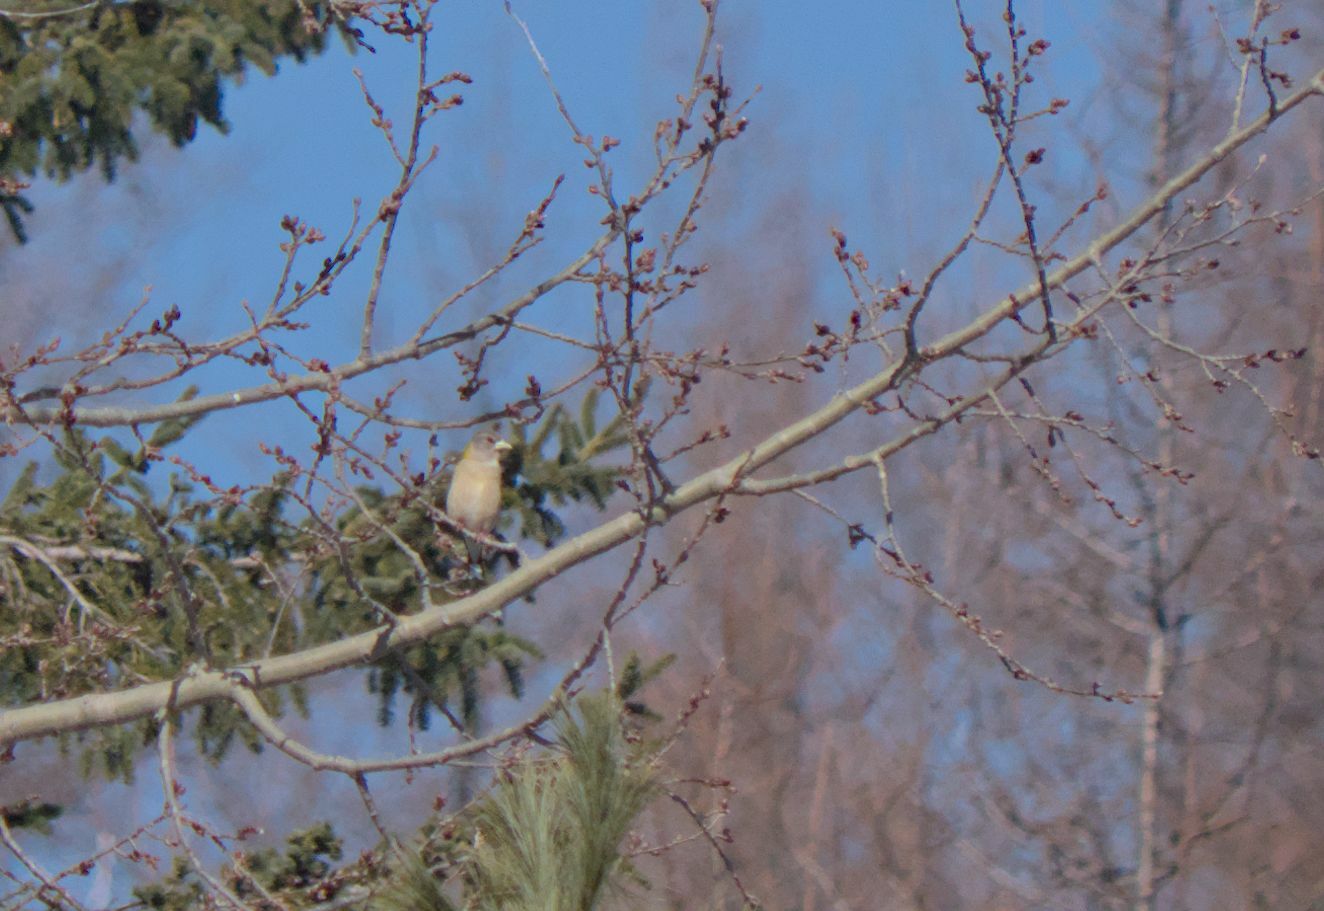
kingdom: Animalia
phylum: Chordata
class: Aves
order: Passeriformes
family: Fringillidae
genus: Hesperiphona
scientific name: Hesperiphona vespertina
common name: Evening grosbeak
